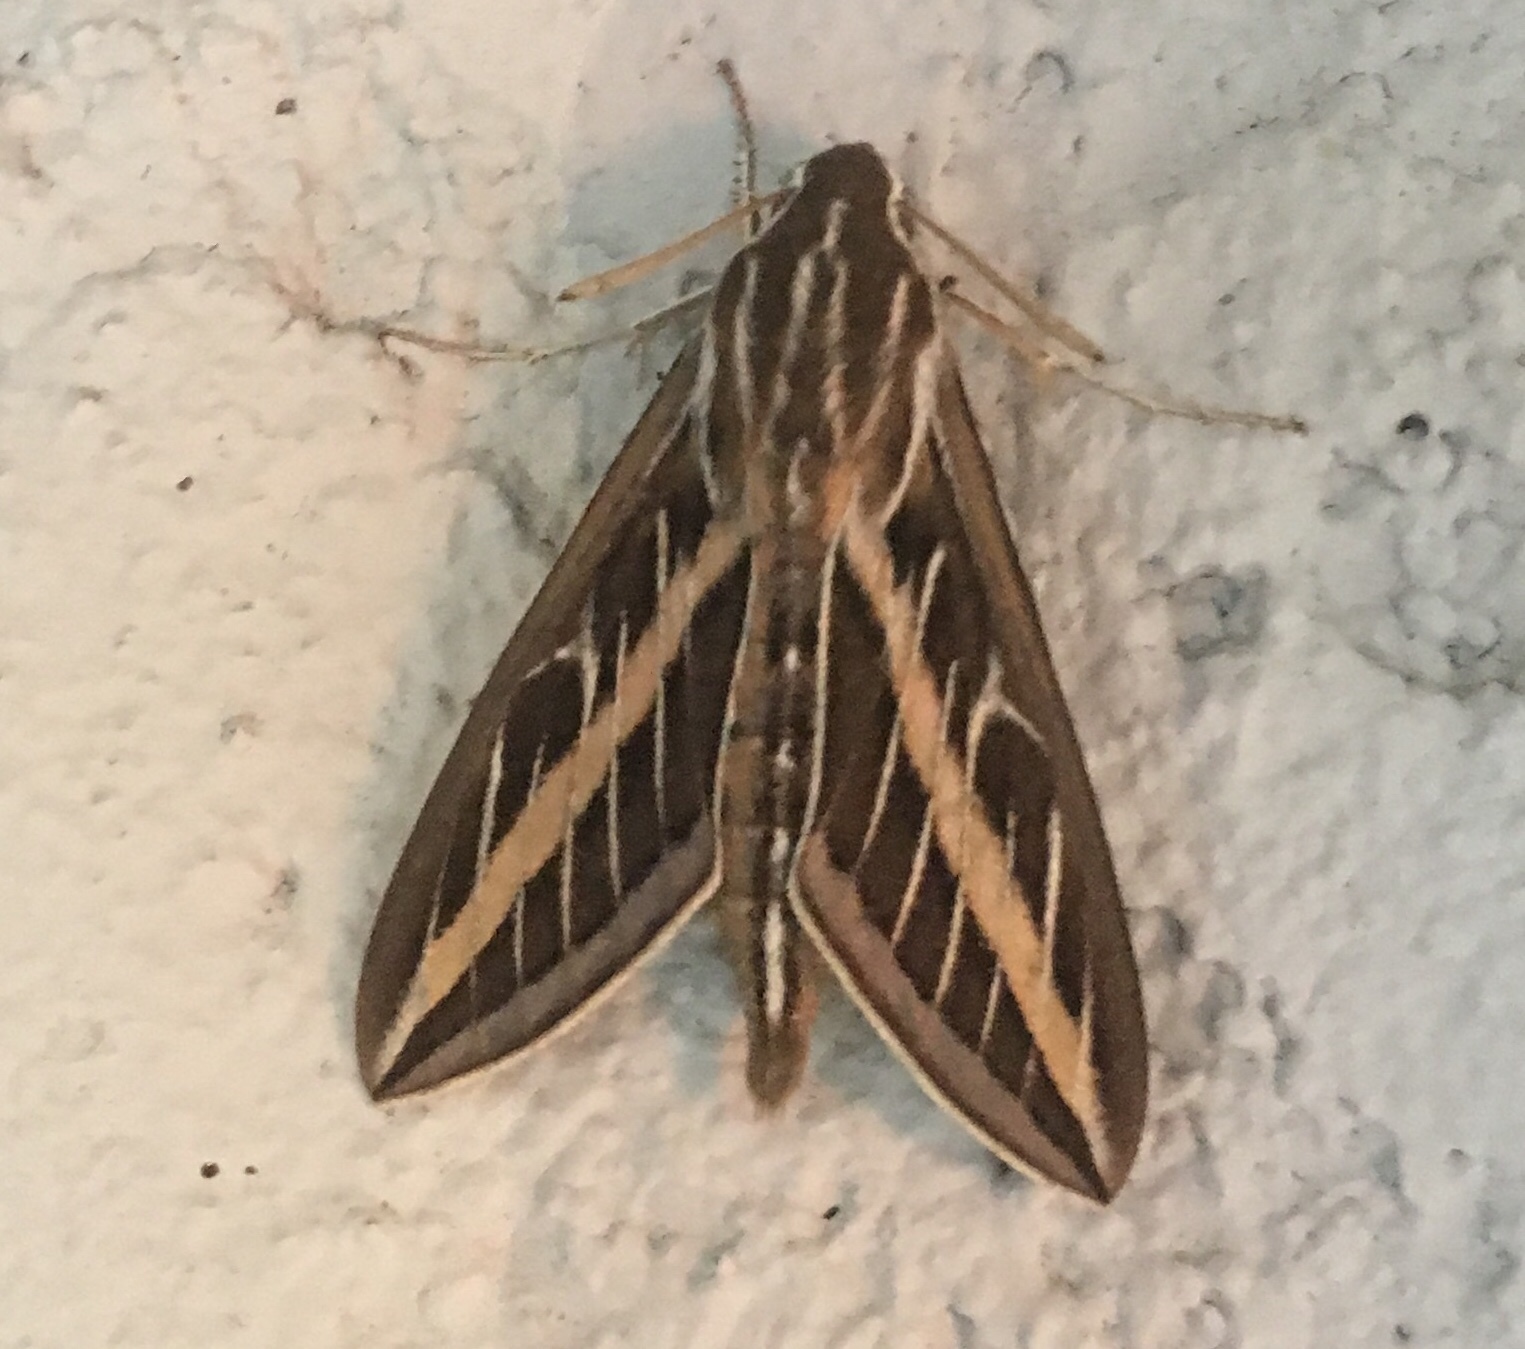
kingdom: Animalia
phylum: Arthropoda
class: Insecta
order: Lepidoptera
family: Sphingidae
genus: Hyles
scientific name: Hyles lineata
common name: White-lined sphinx
